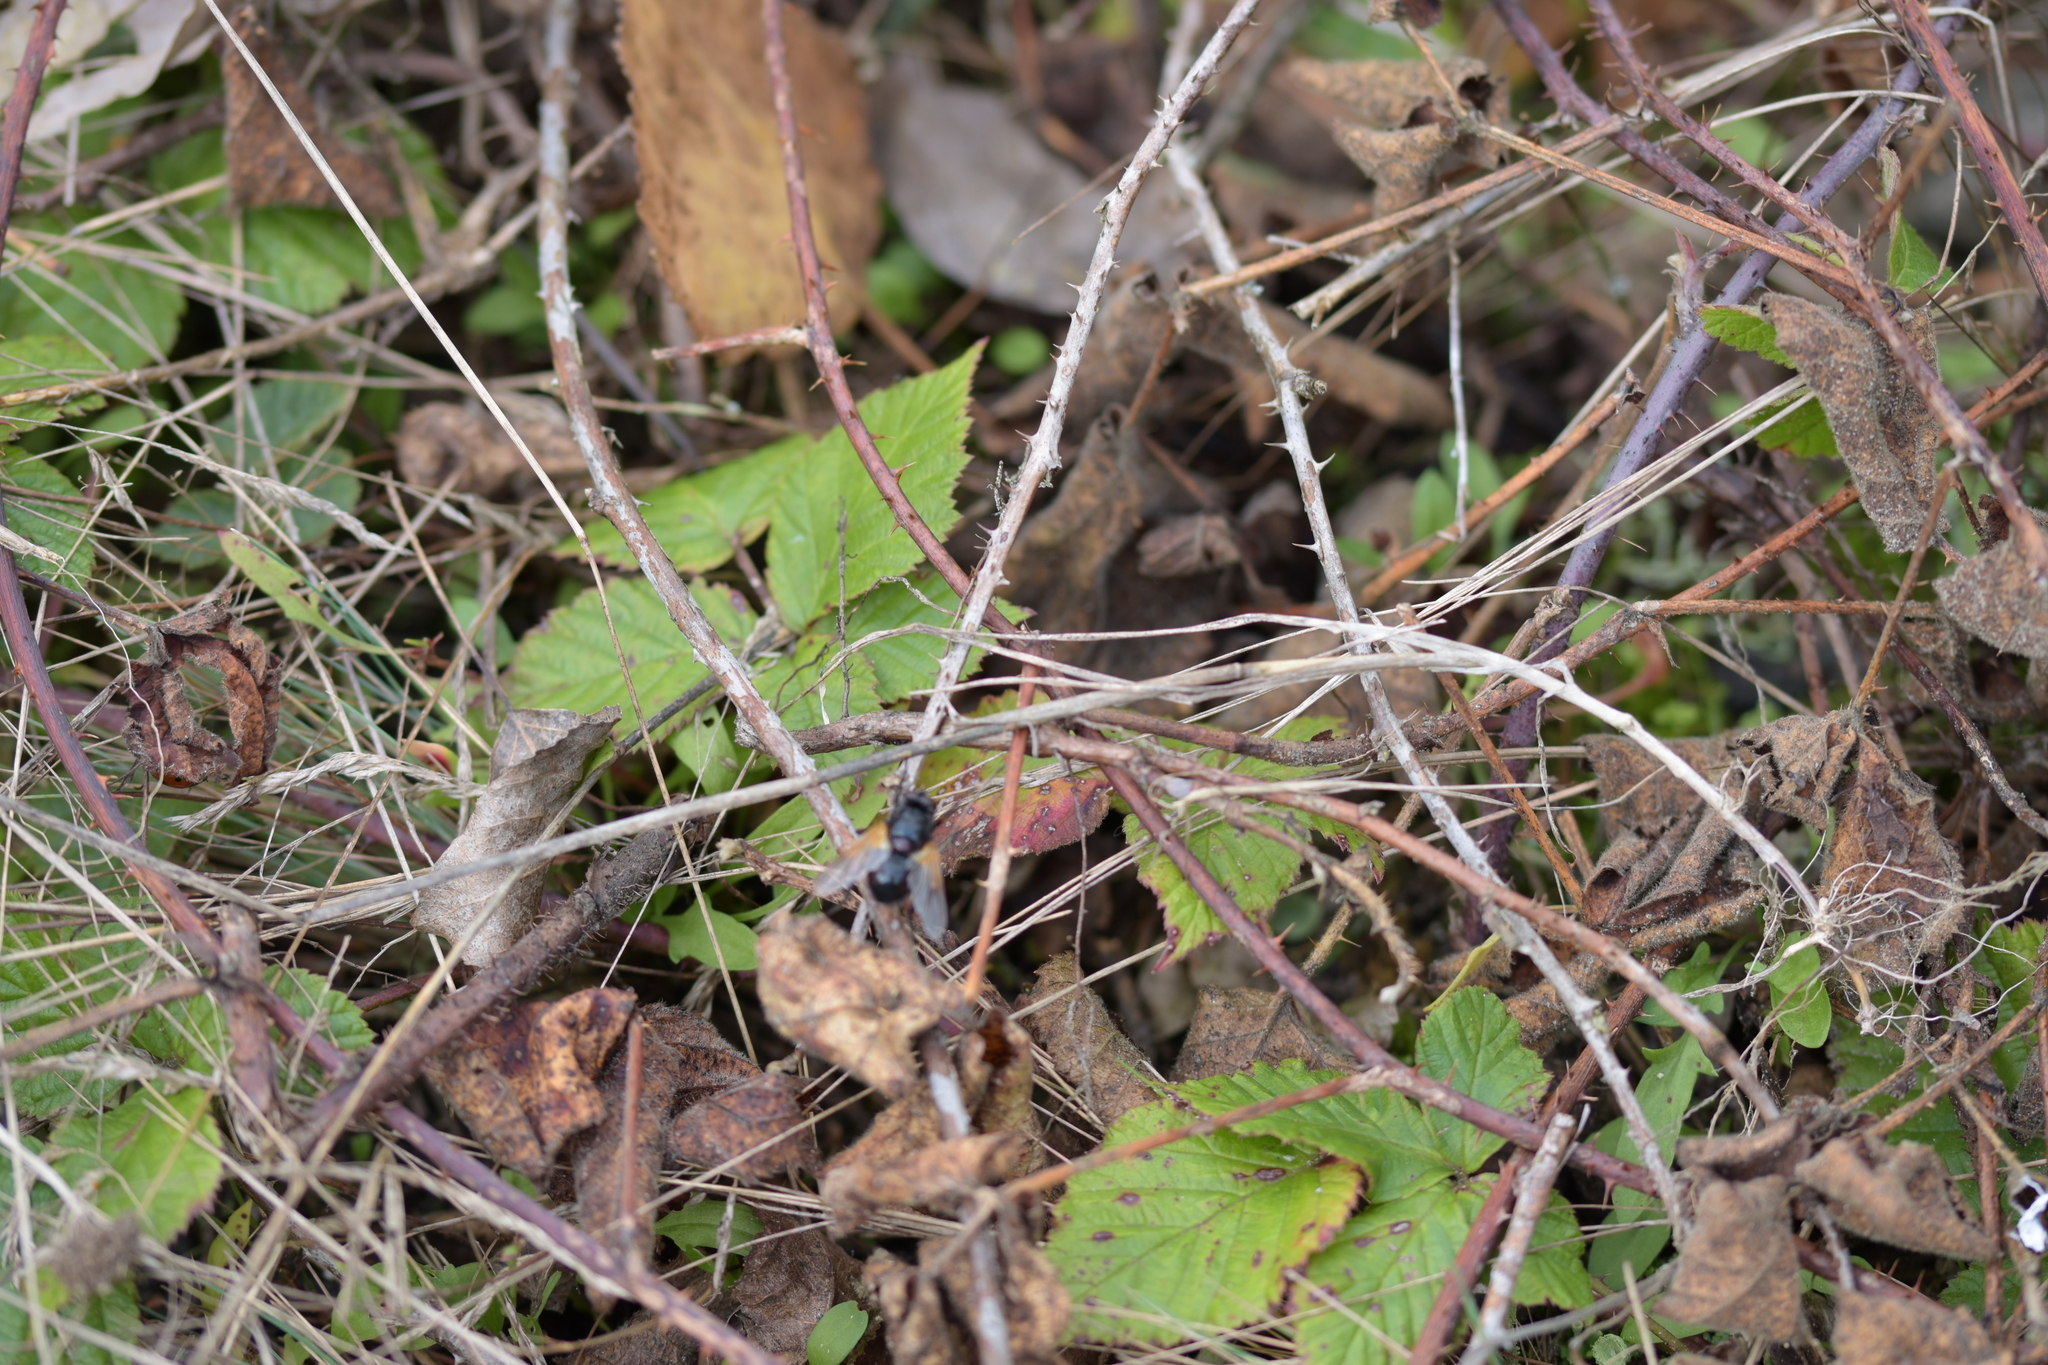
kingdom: Animalia
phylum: Arthropoda
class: Insecta
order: Diptera
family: Muscidae
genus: Mesembrina
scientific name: Mesembrina meridiana
